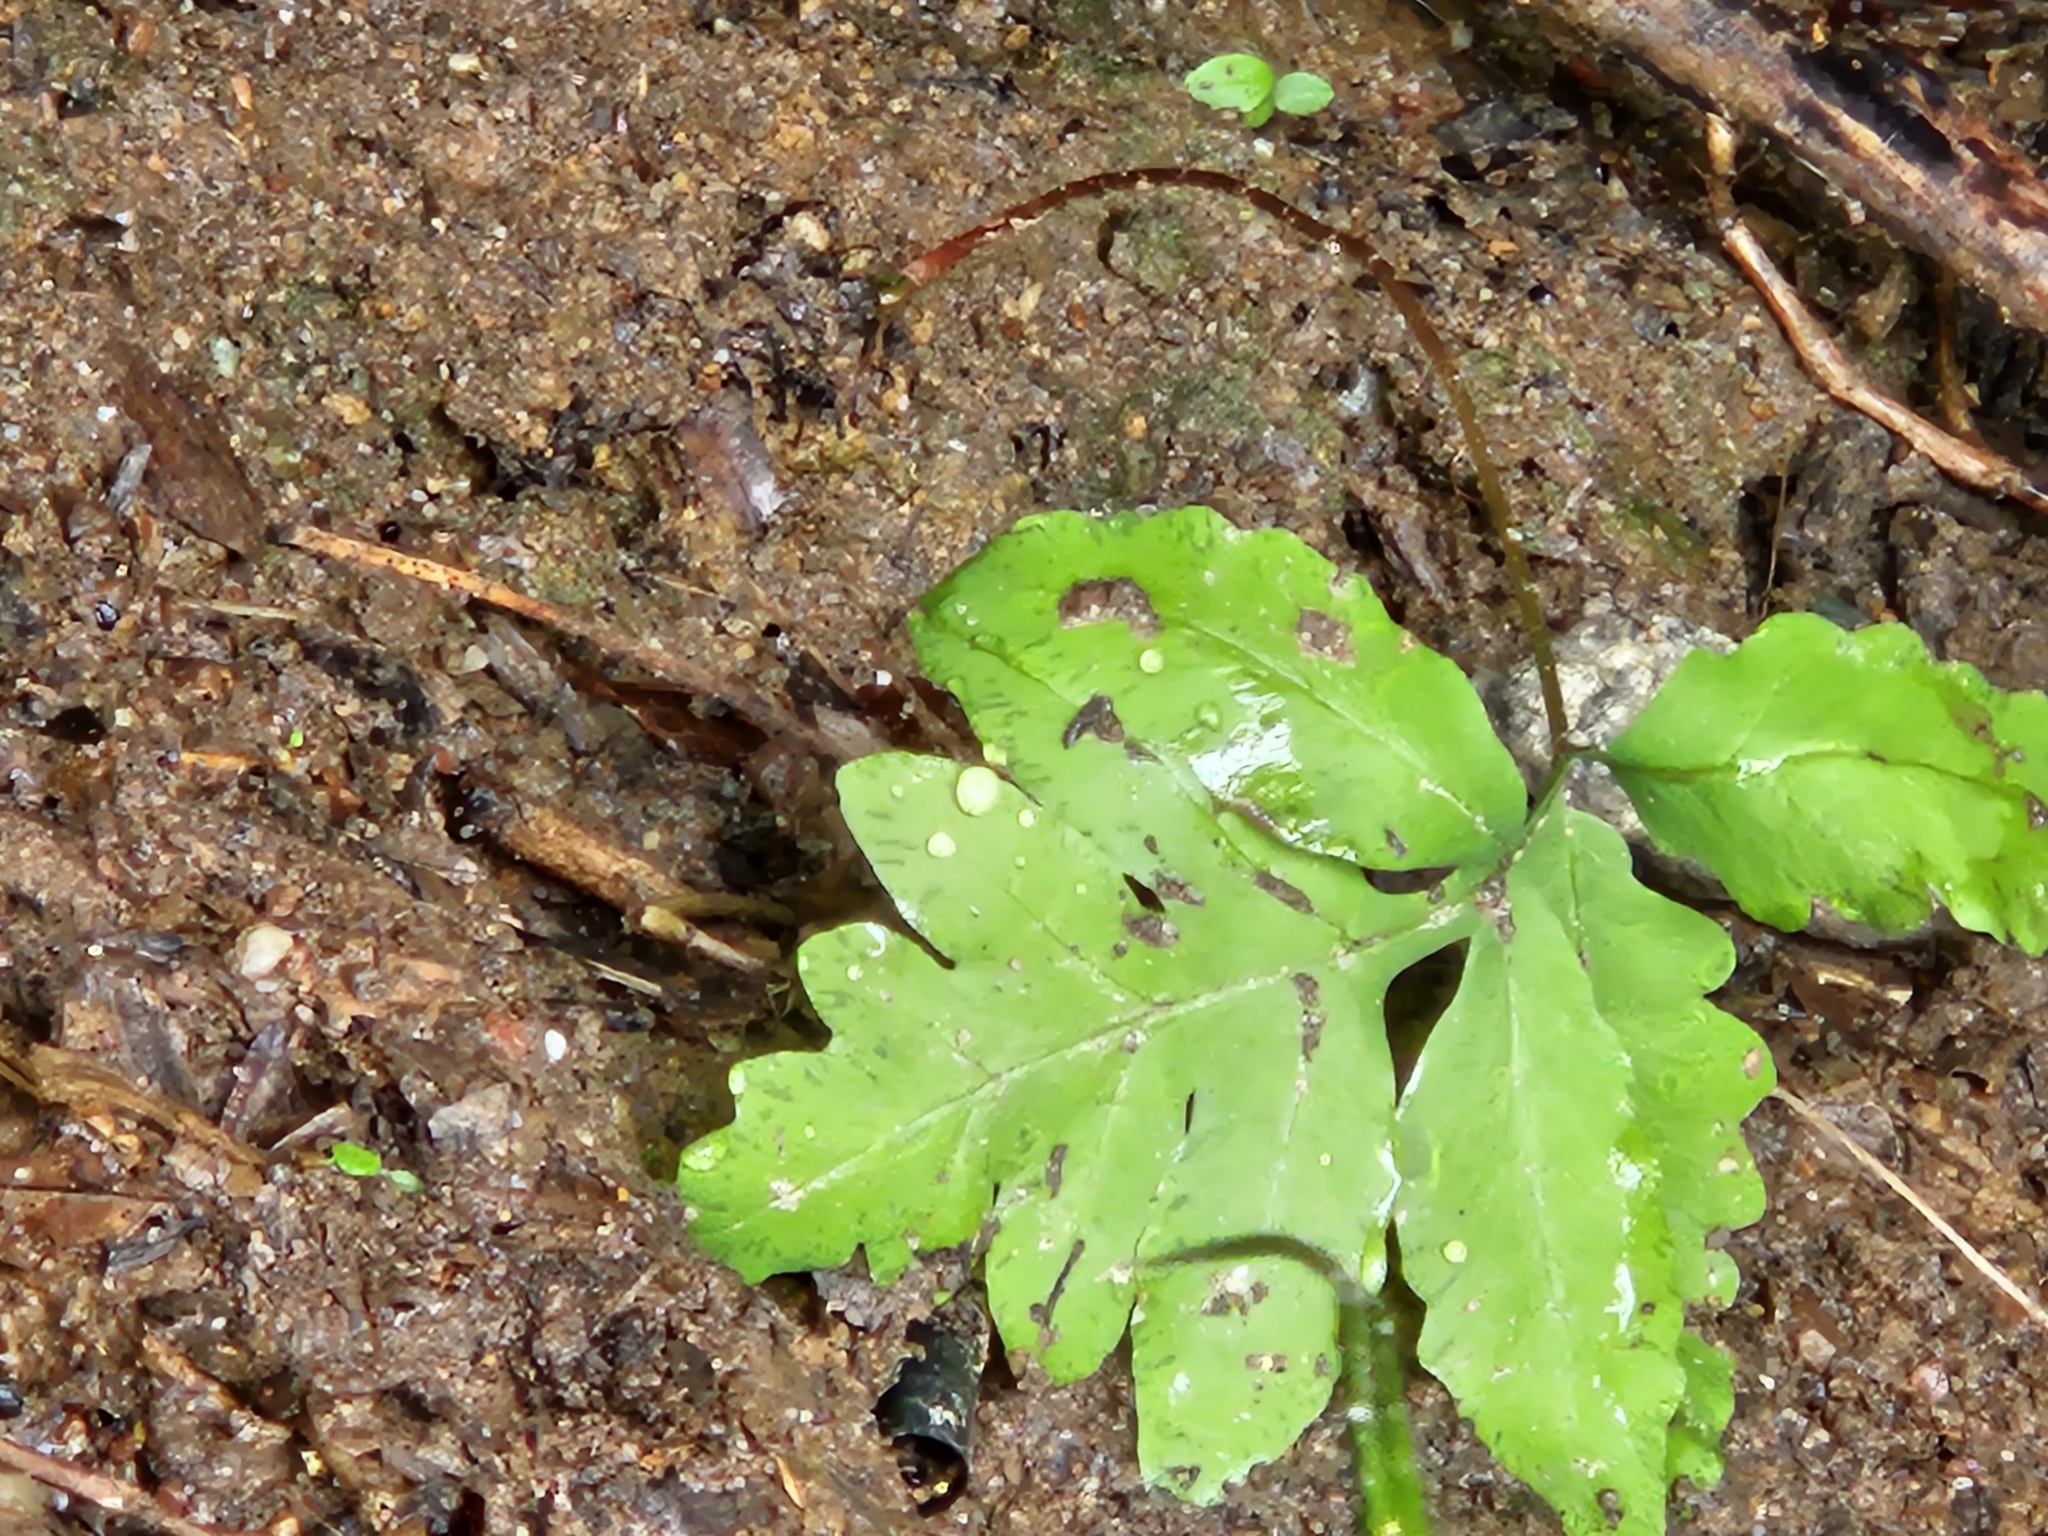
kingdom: Plantae
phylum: Tracheophyta
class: Polypodiopsida
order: Polypodiales
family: Onocleaceae
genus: Onoclea
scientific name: Onoclea sensibilis
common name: Sensitive fern
